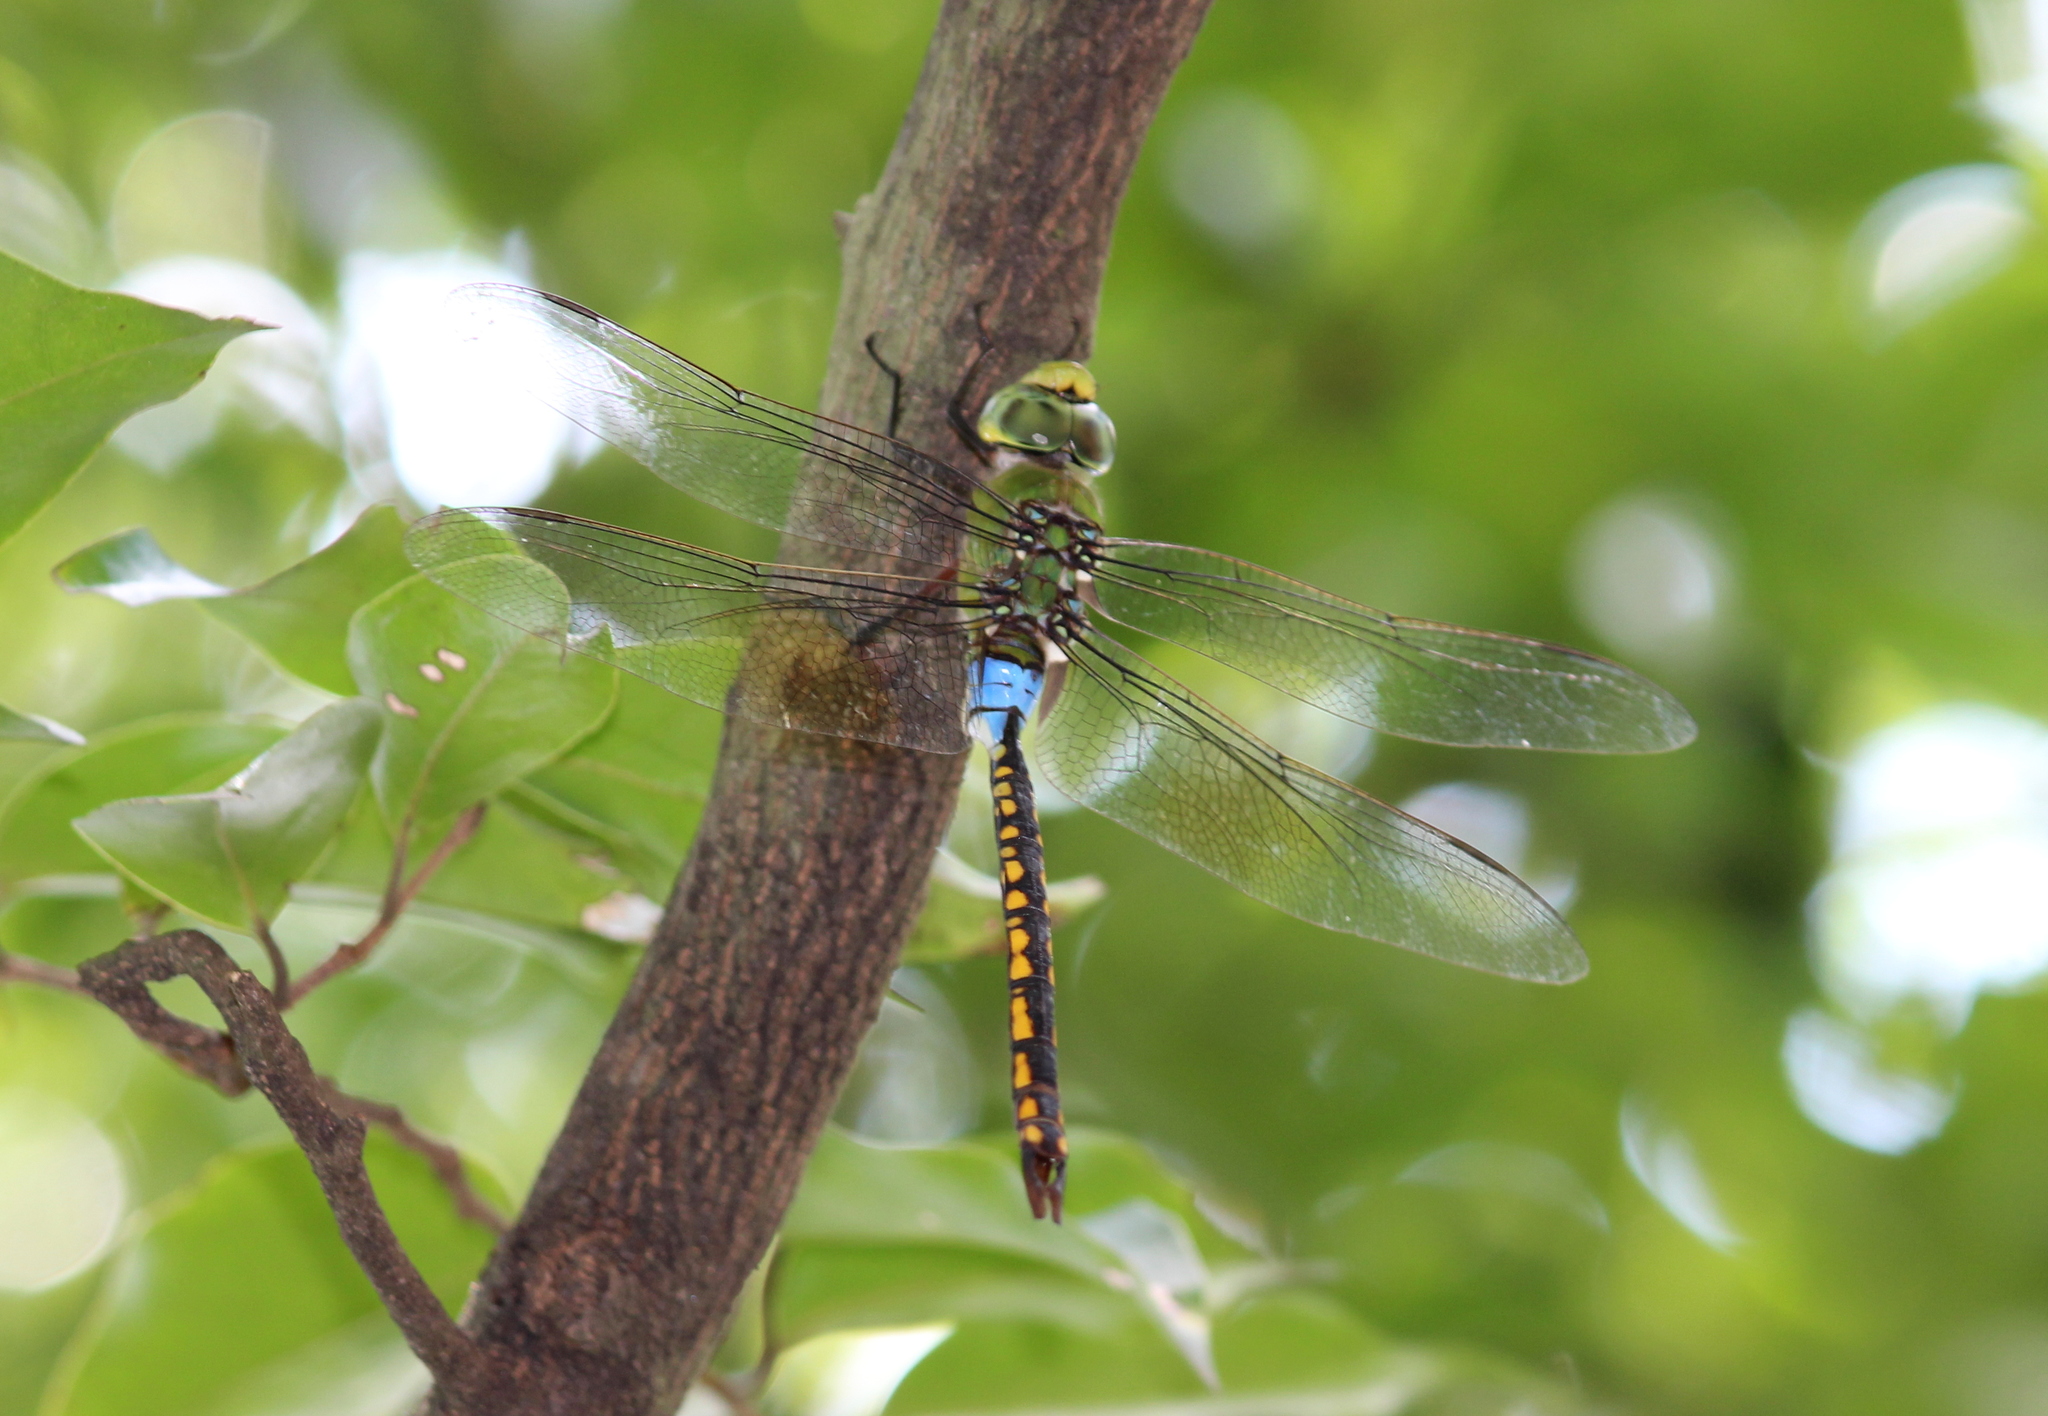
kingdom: Animalia
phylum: Arthropoda
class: Insecta
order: Odonata
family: Aeshnidae
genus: Anax
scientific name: Anax indicus
